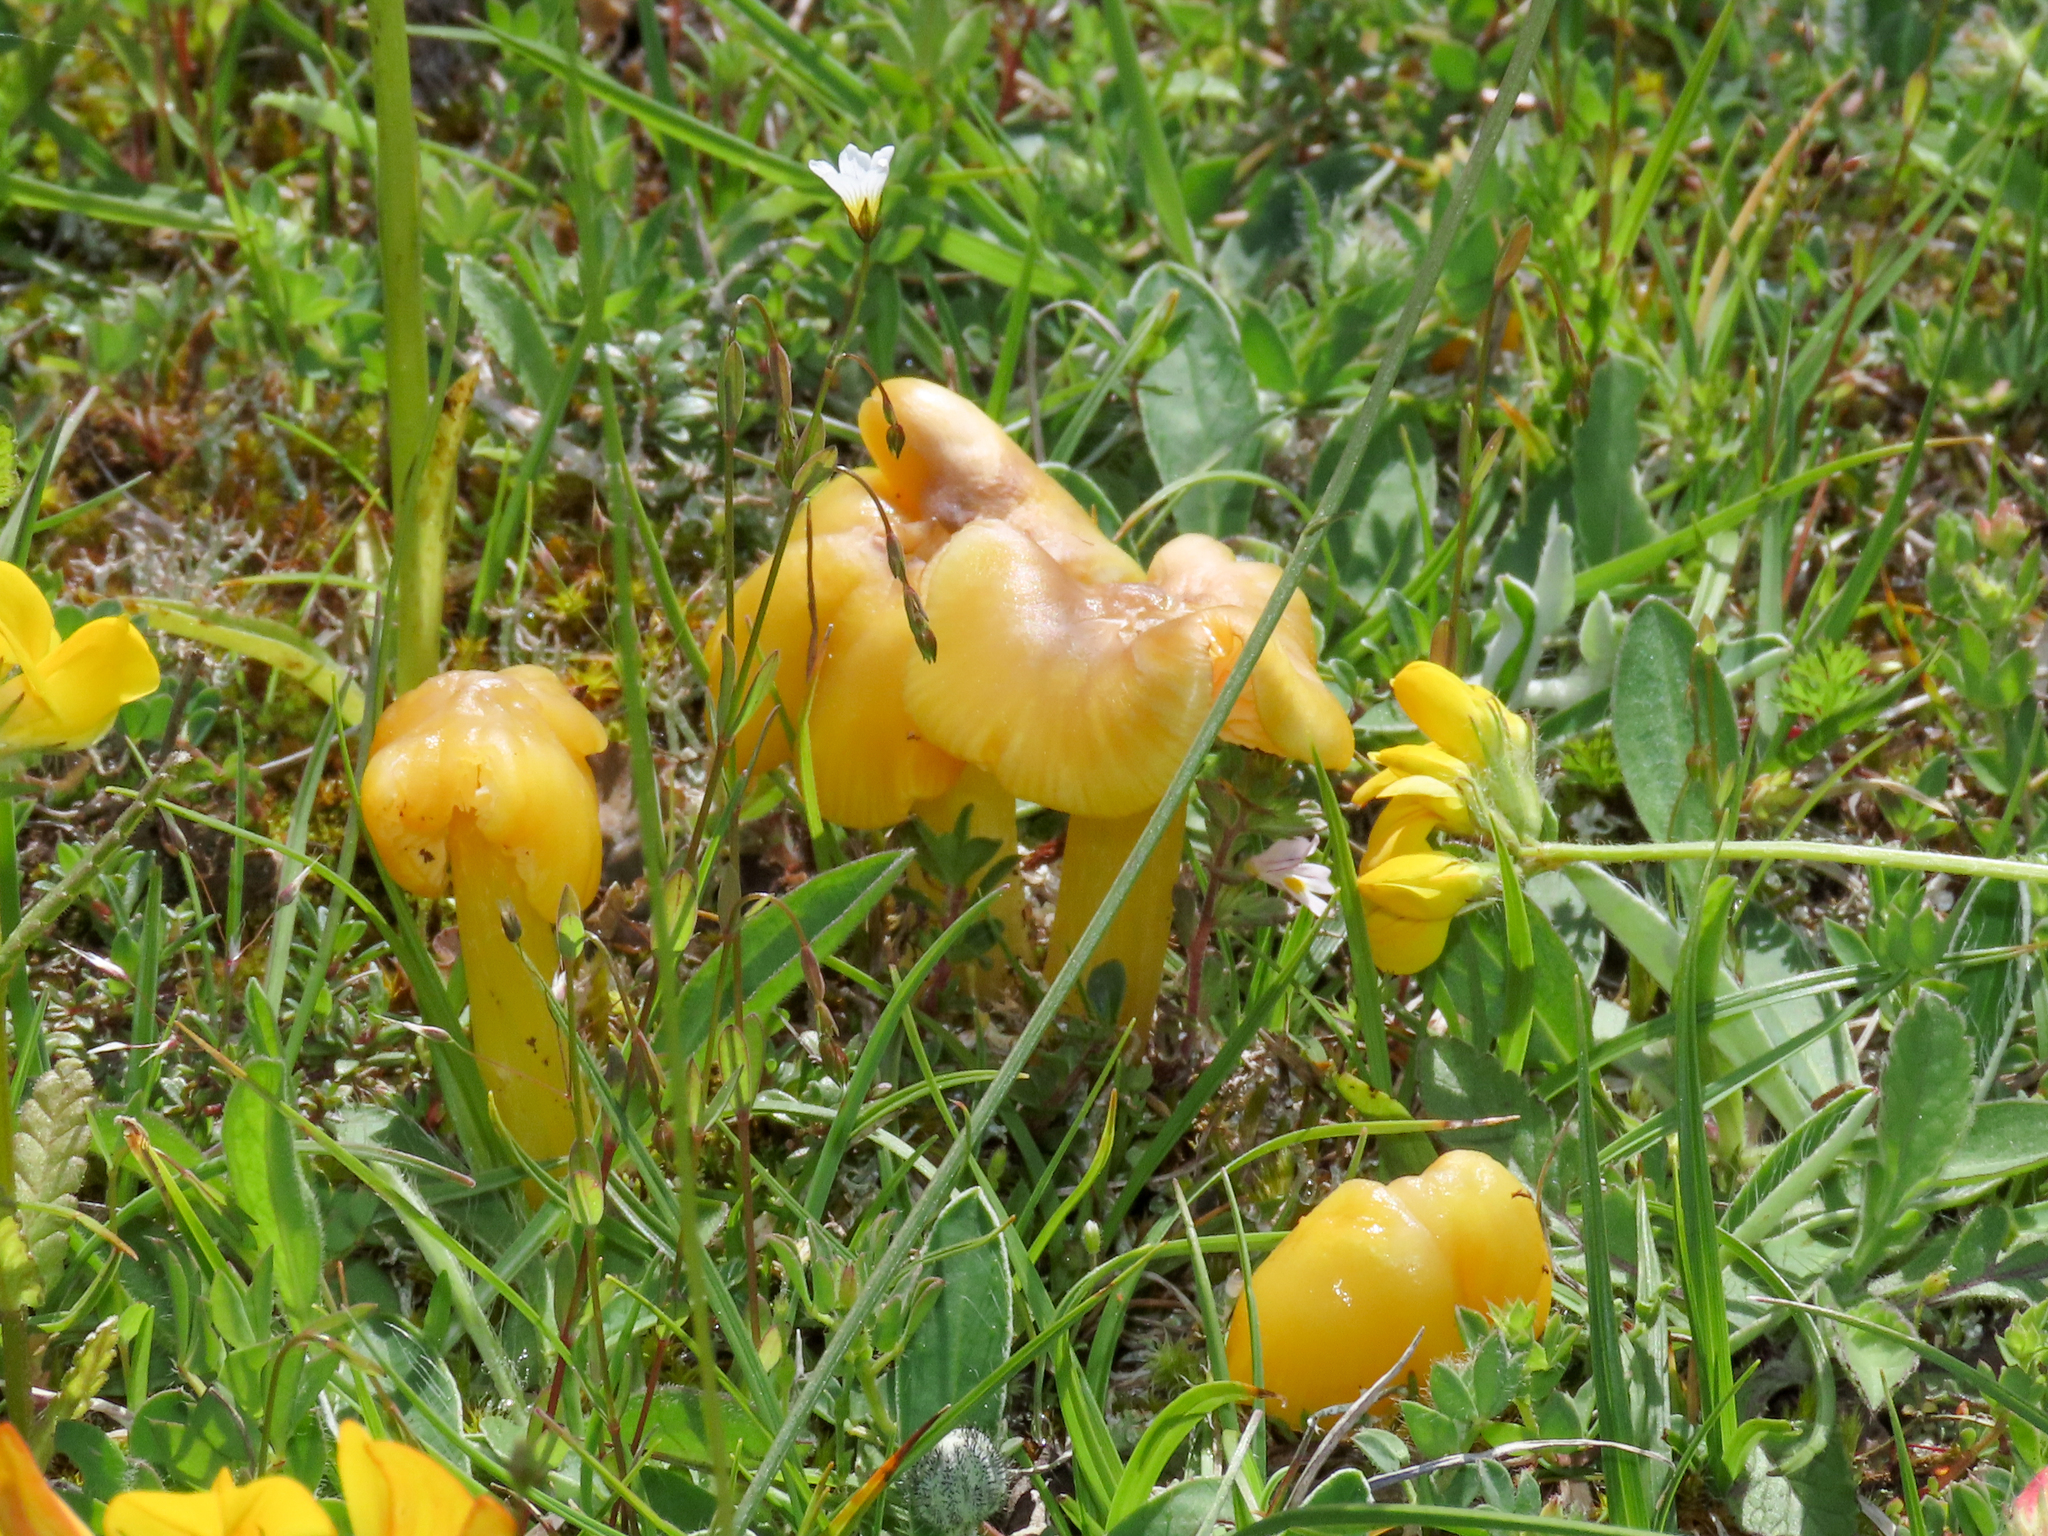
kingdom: Fungi
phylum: Basidiomycota
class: Agaricomycetes
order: Agaricales
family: Hygrophoraceae
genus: Hygrocybe
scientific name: Hygrocybe acutoconica
